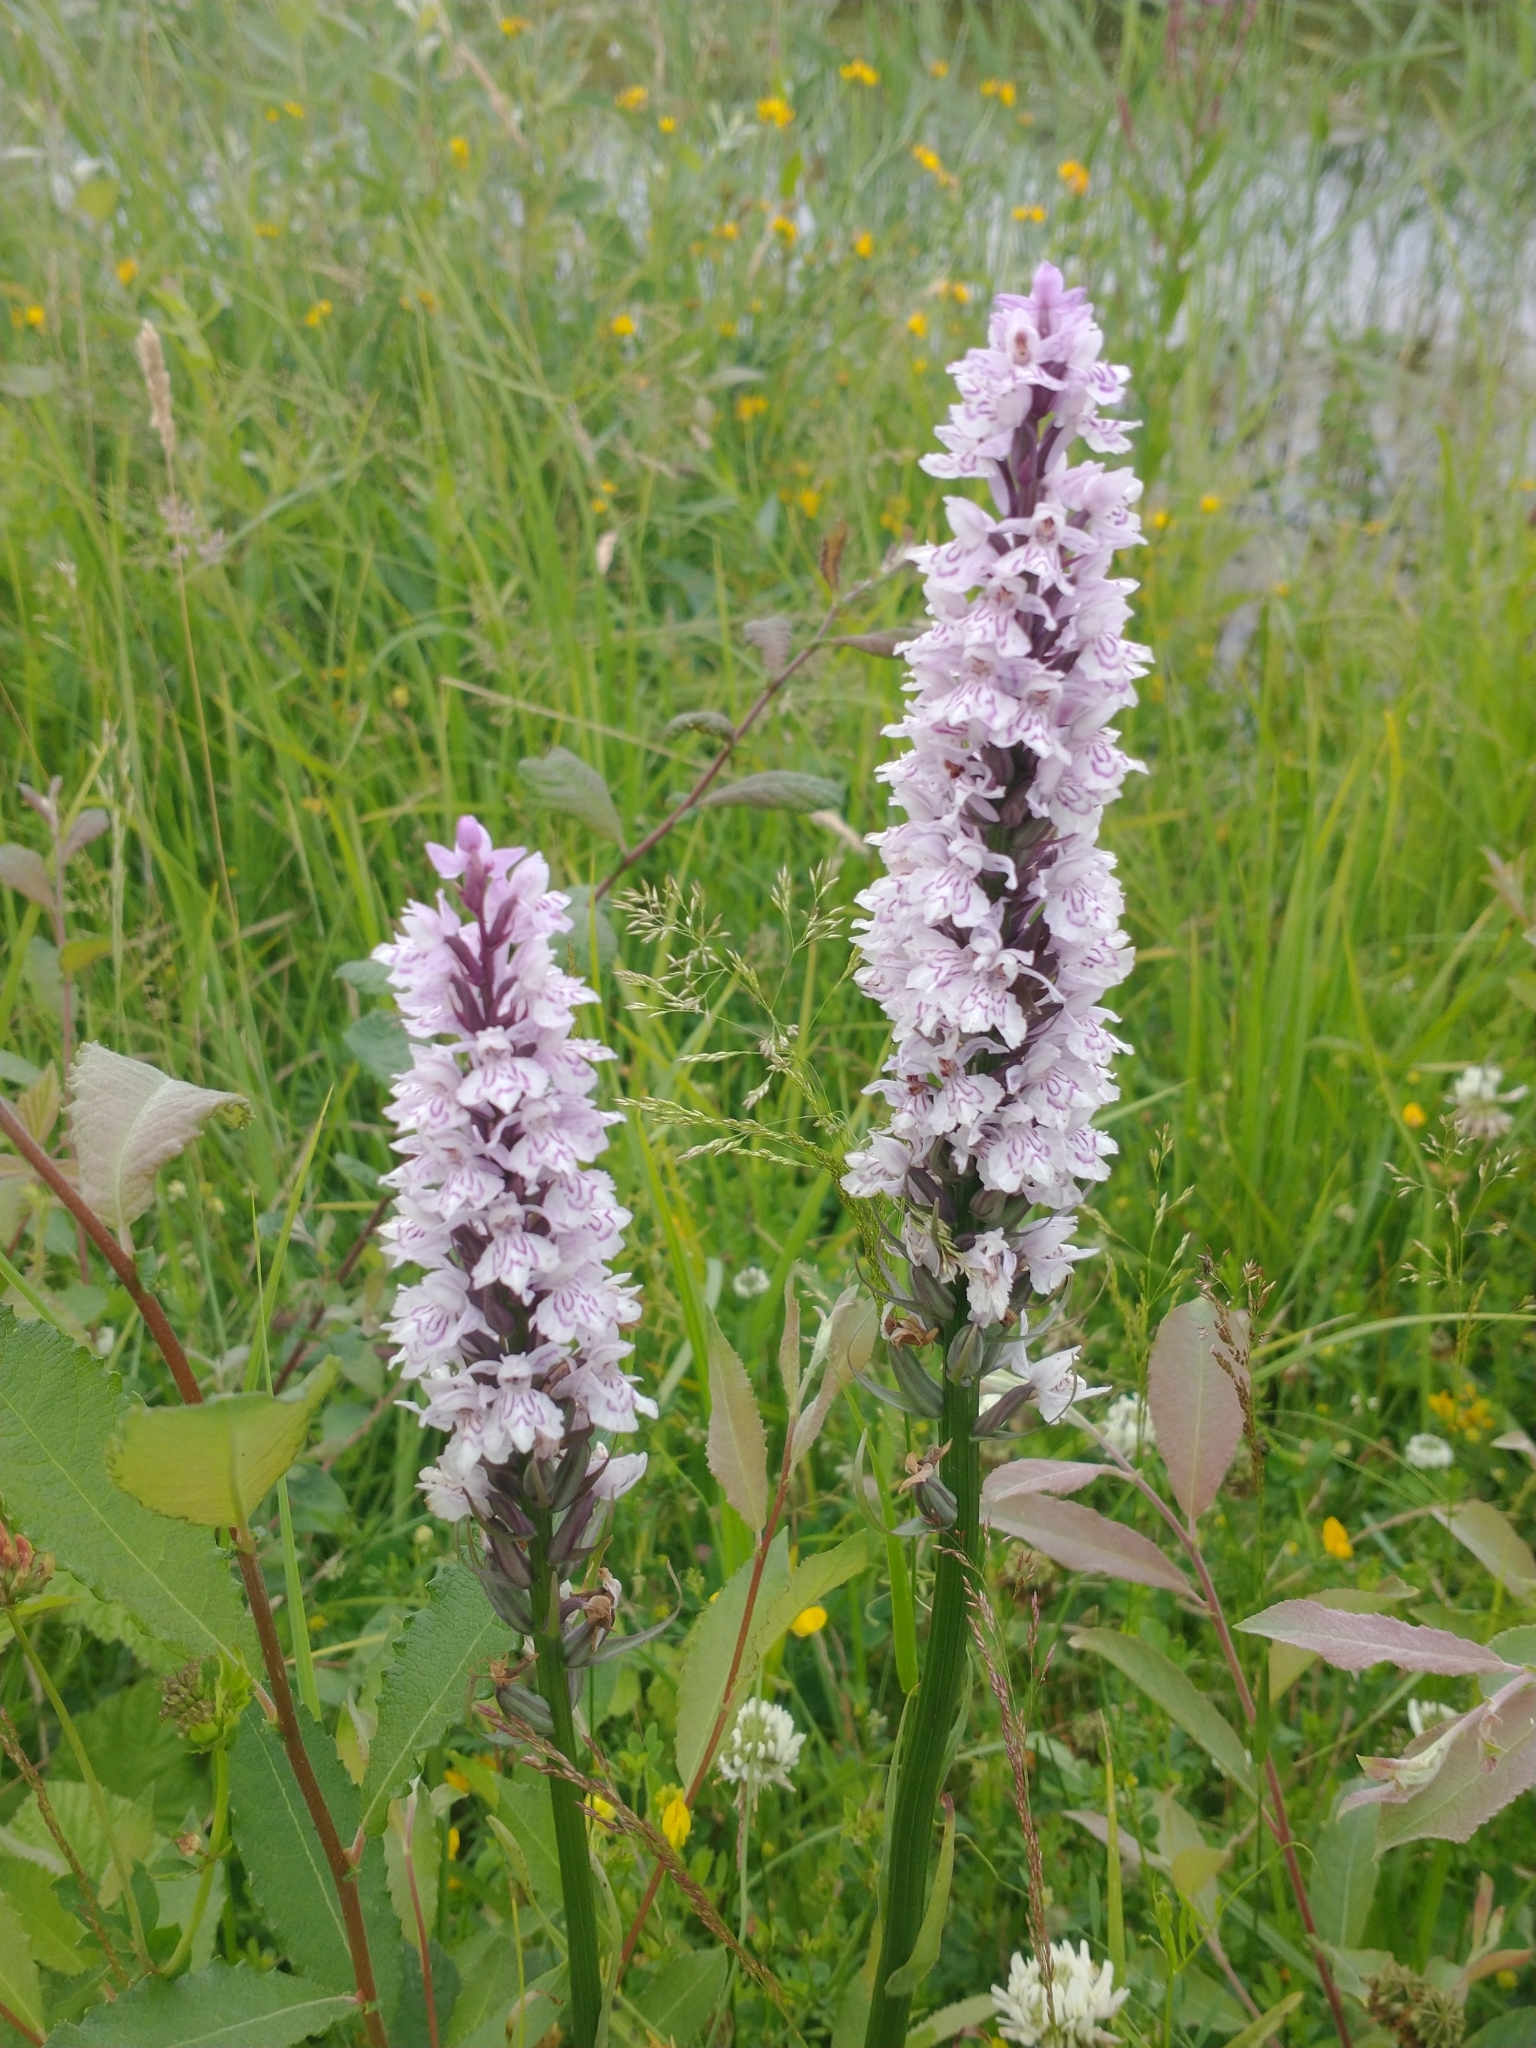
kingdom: Plantae
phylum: Tracheophyta
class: Liliopsida
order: Asparagales
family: Orchidaceae
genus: Dactylorhiza
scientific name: Dactylorhiza maculata
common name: Heath spotted-orchid
